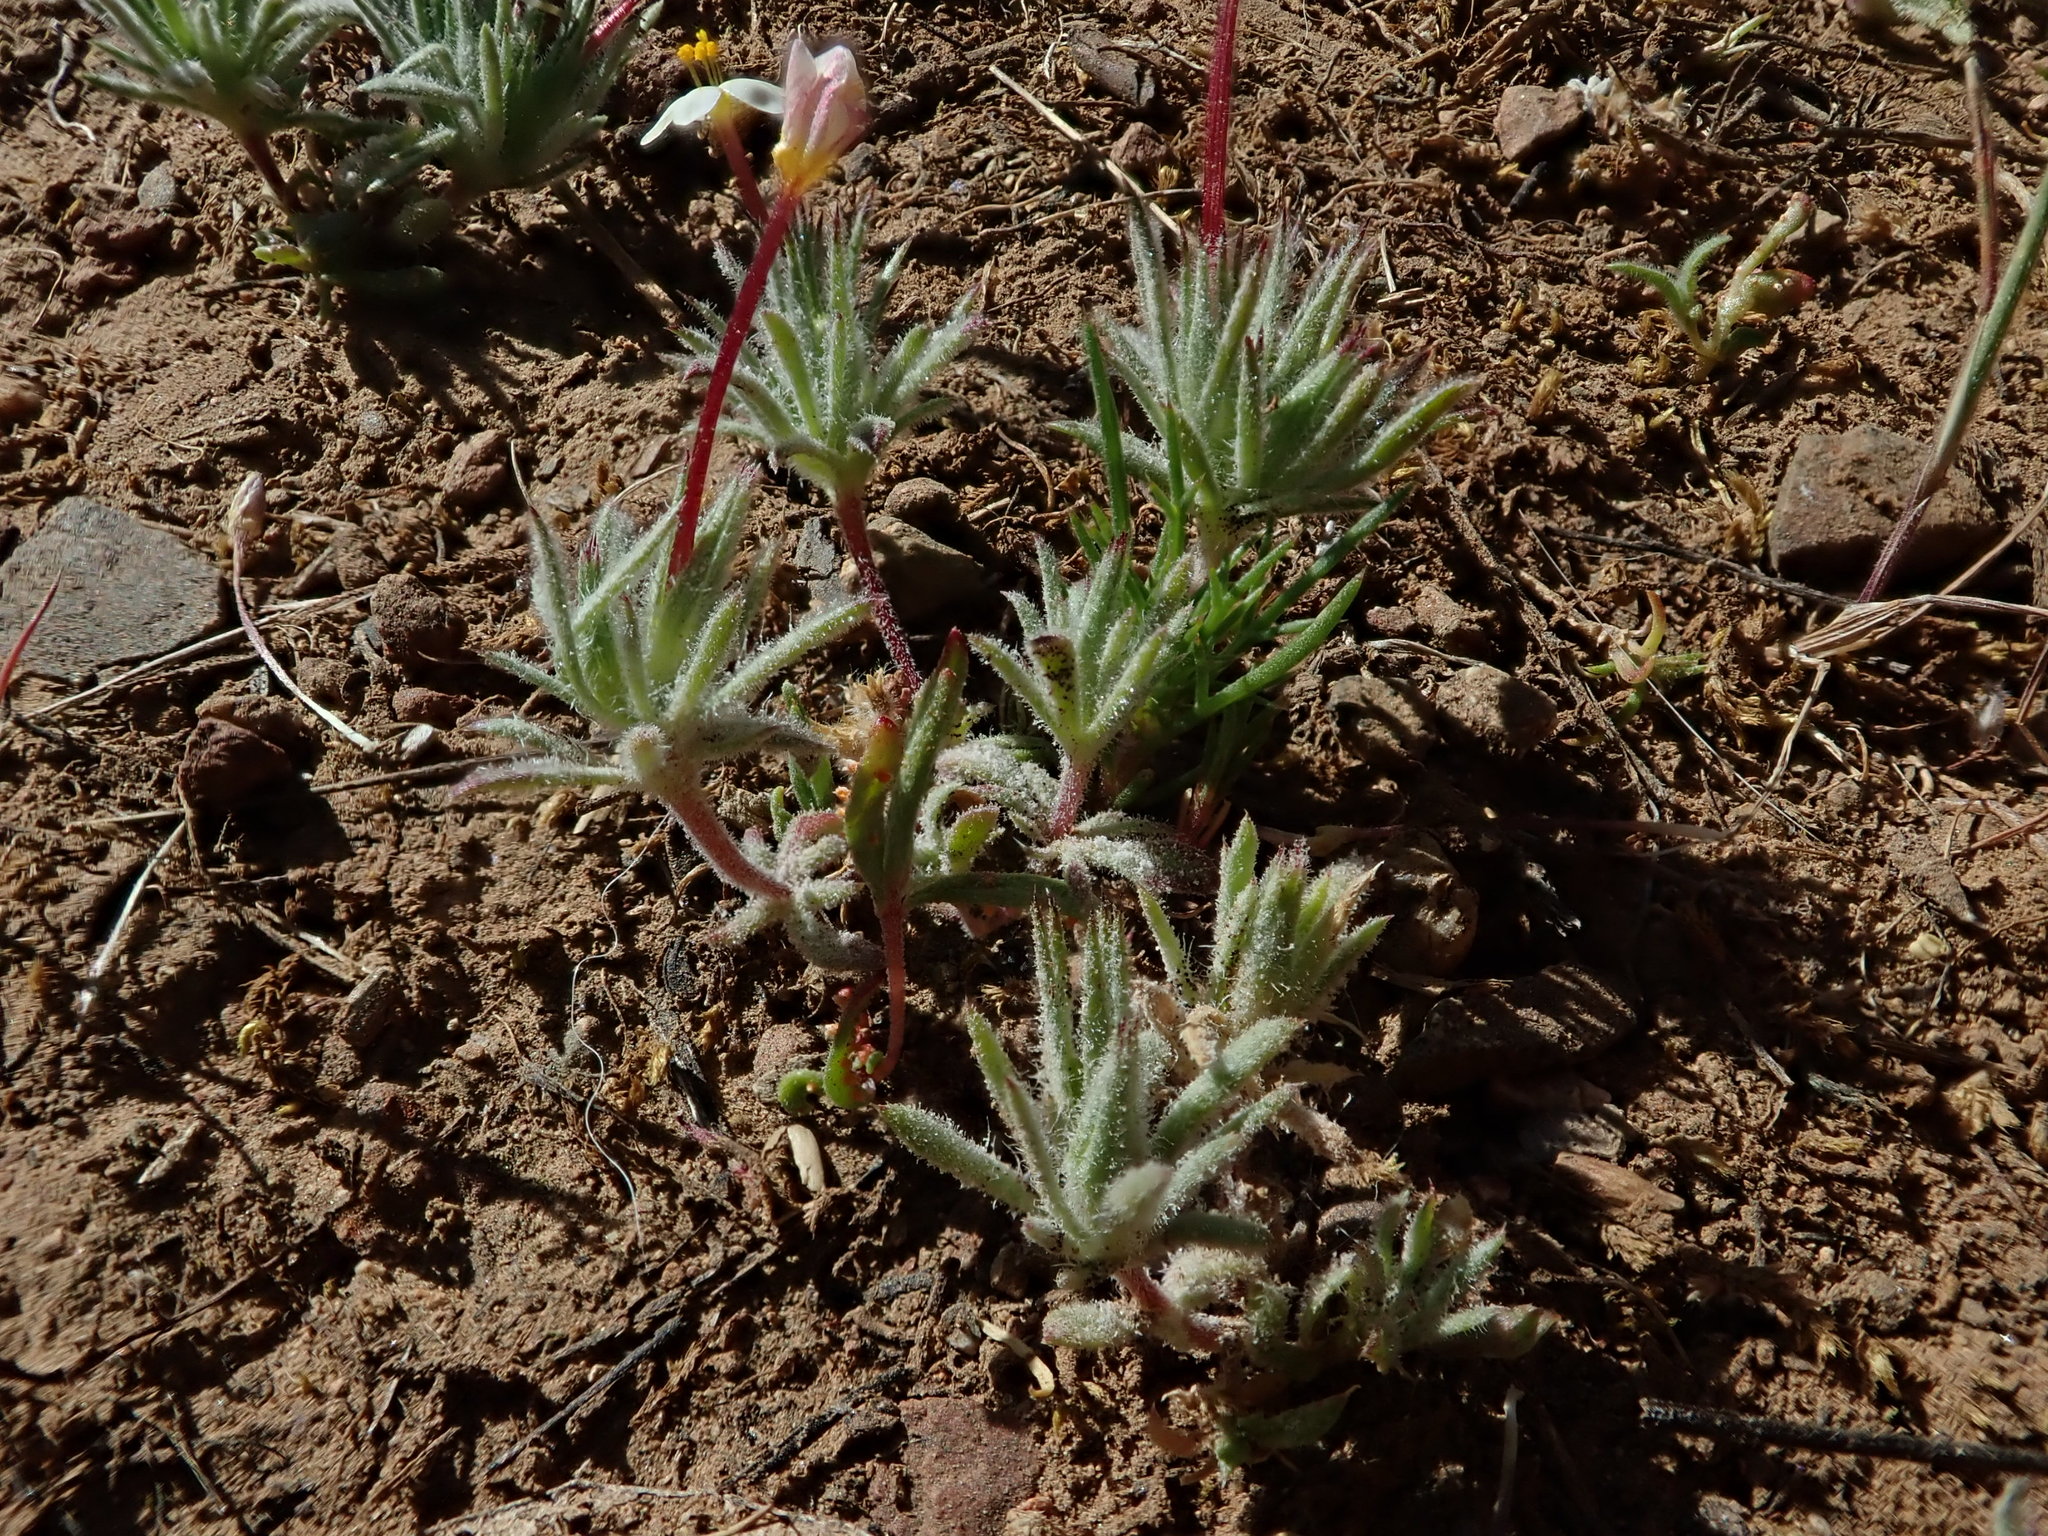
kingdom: Plantae
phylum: Tracheophyta
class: Magnoliopsida
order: Ericales
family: Polemoniaceae
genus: Leptosiphon
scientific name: Leptosiphon bicolor
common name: True babystars
